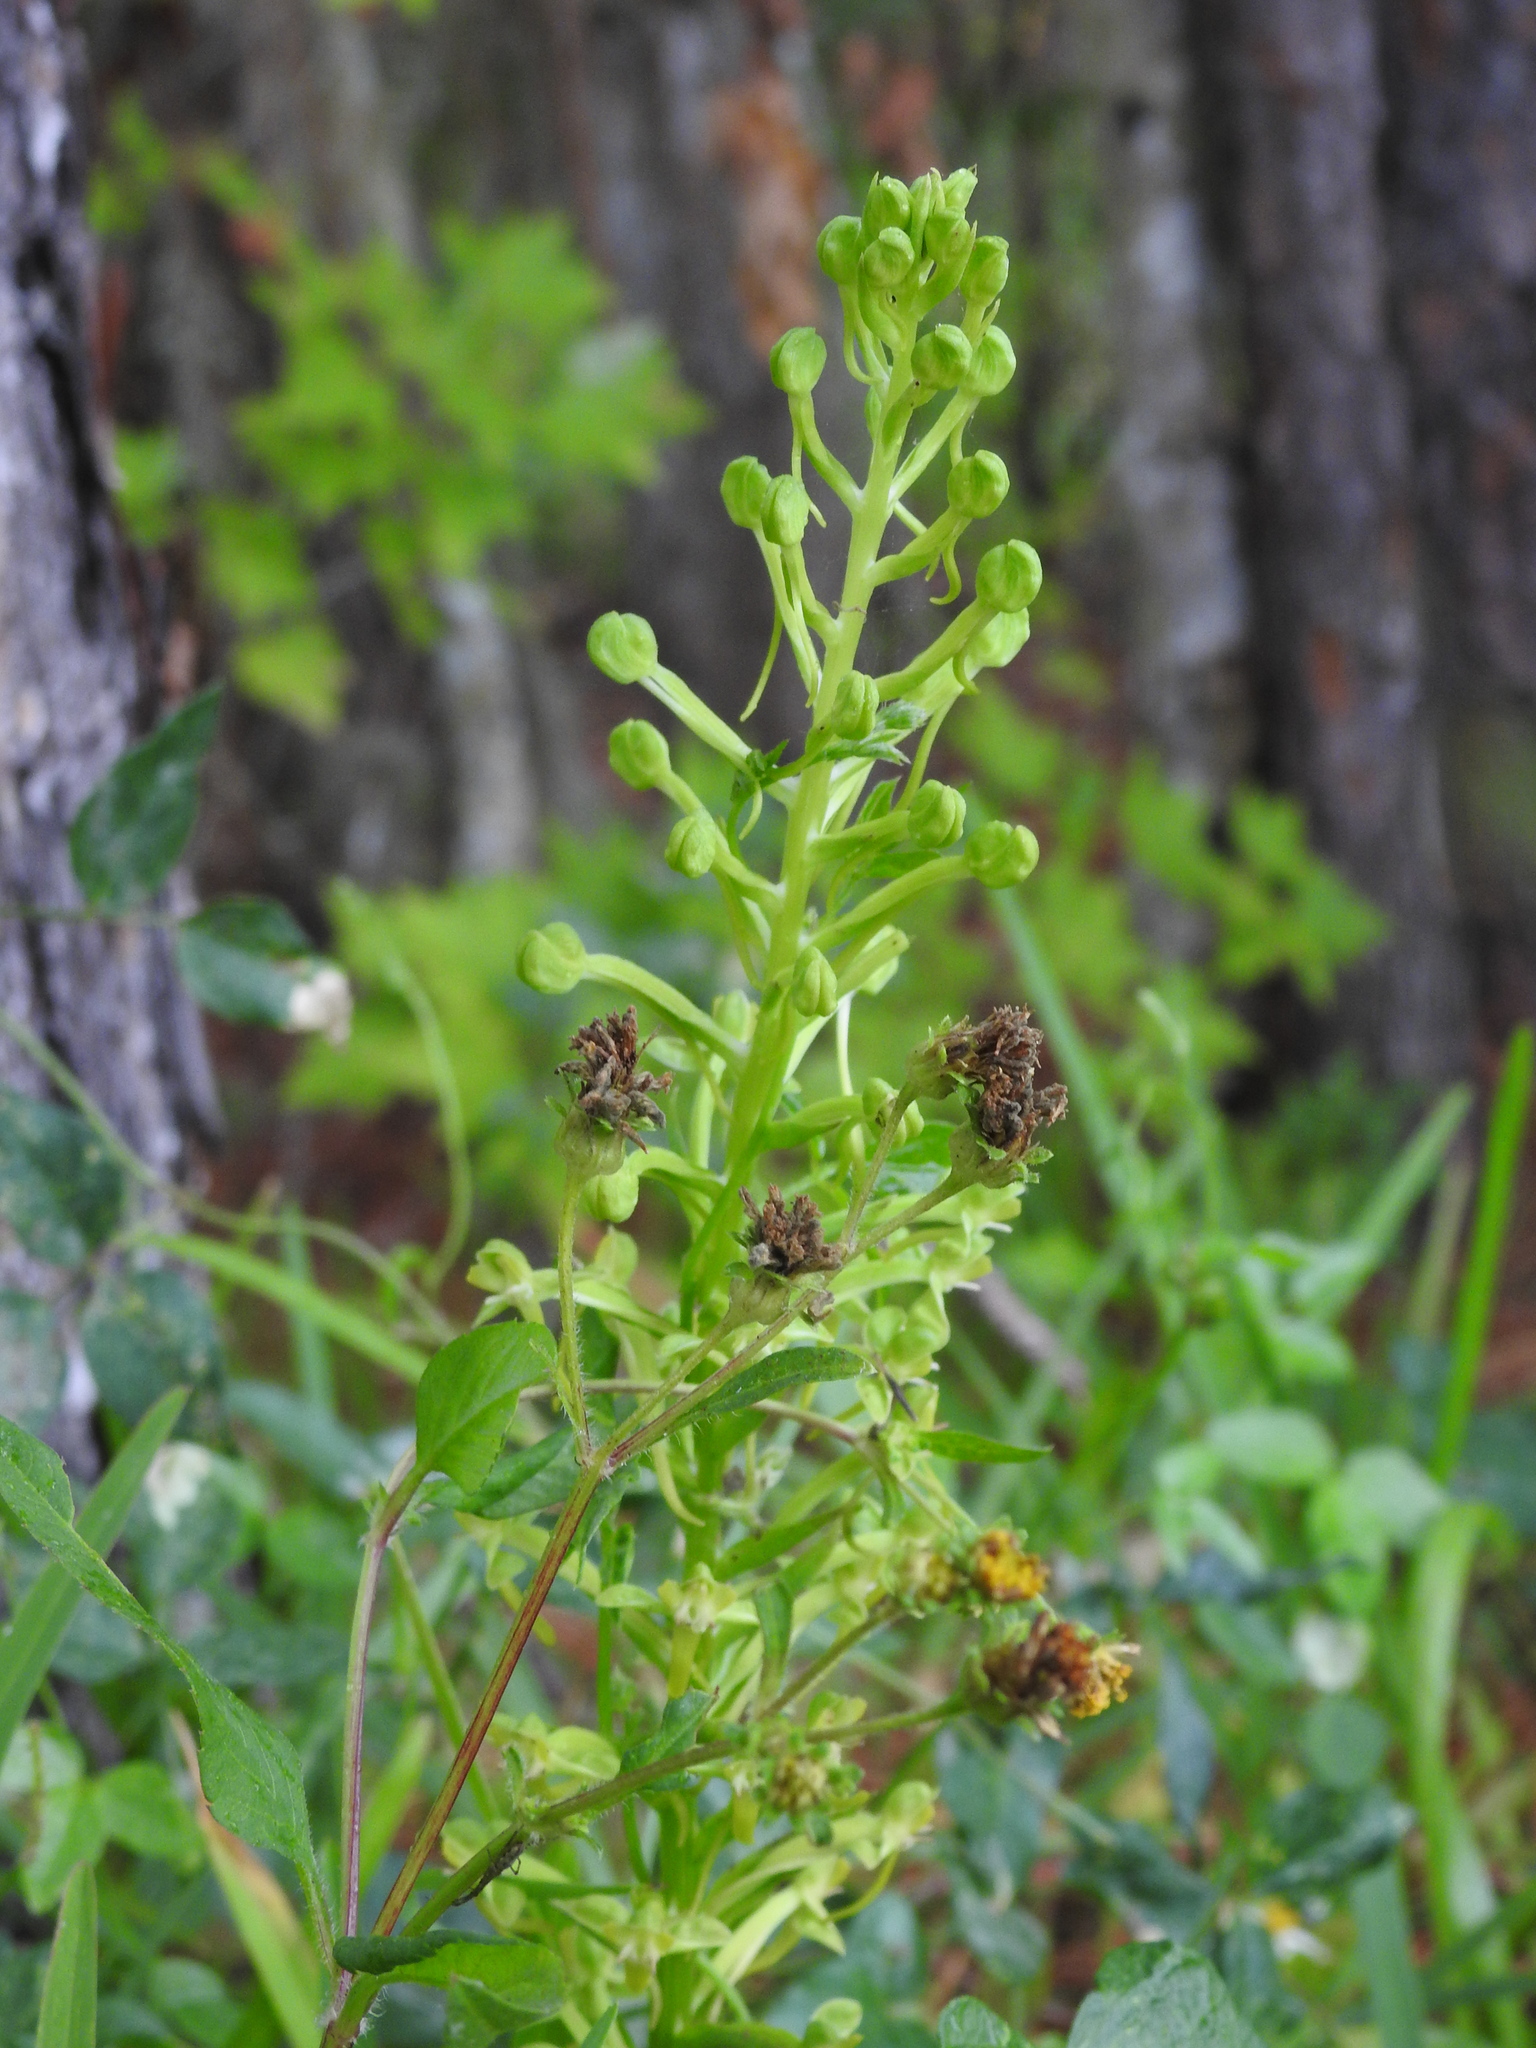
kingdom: Plantae
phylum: Tracheophyta
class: Liliopsida
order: Asparagales
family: Orchidaceae
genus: Habenaria
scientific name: Habenaria floribunda
